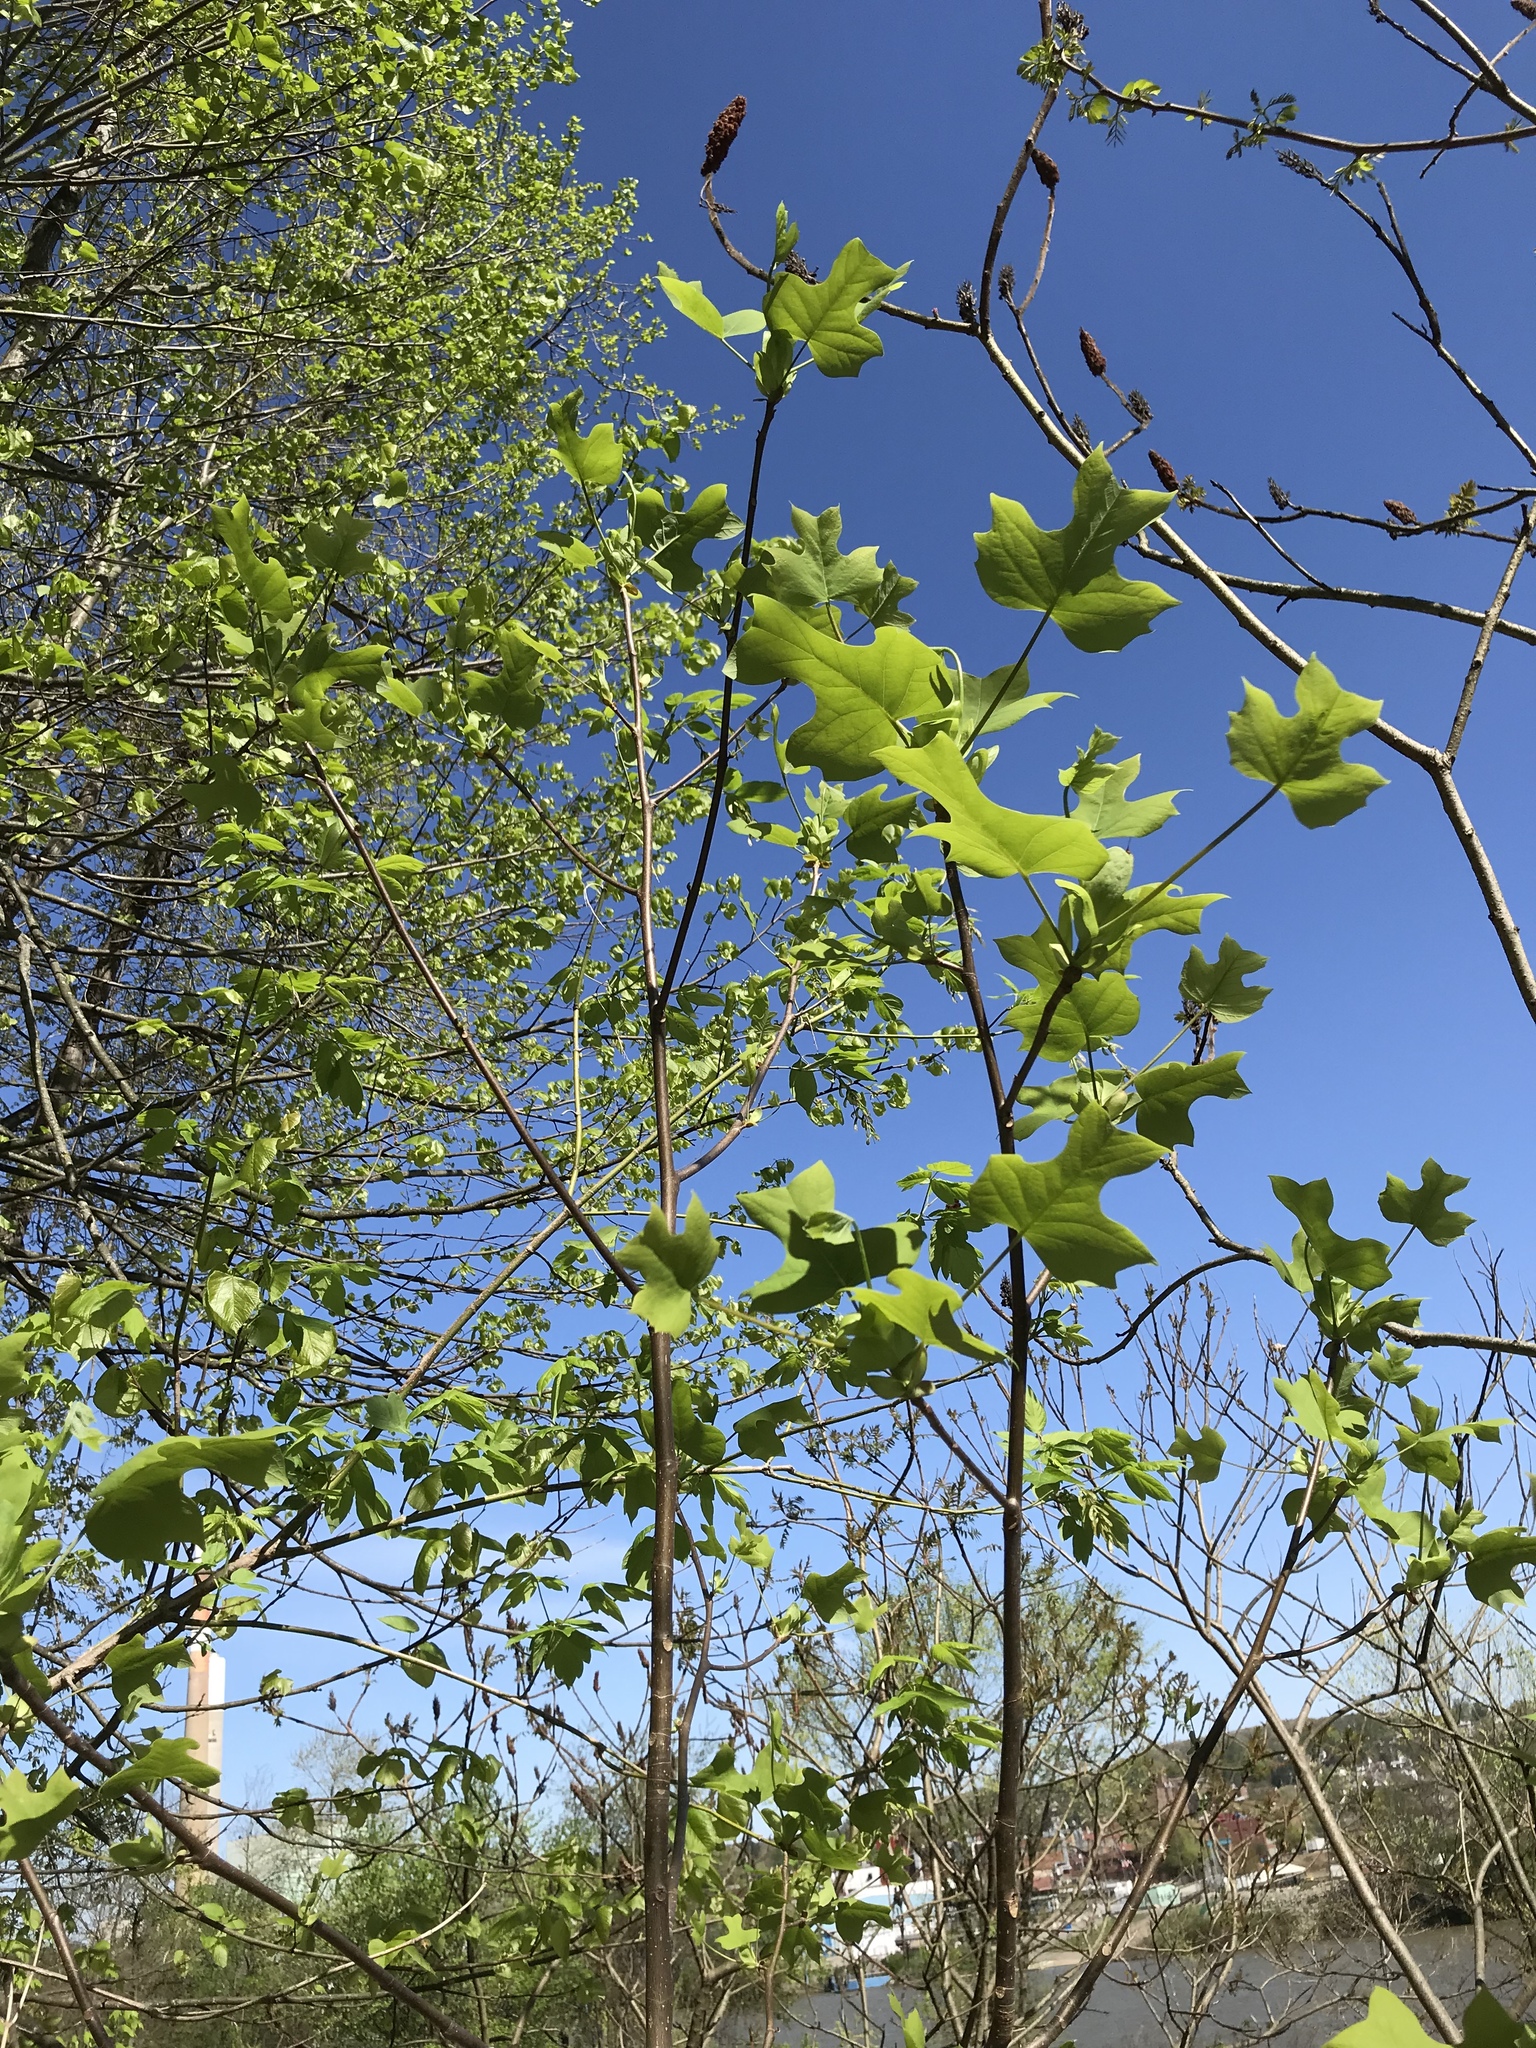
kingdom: Plantae
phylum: Tracheophyta
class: Magnoliopsida
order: Magnoliales
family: Magnoliaceae
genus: Liriodendron
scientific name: Liriodendron tulipifera
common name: Tulip tree
